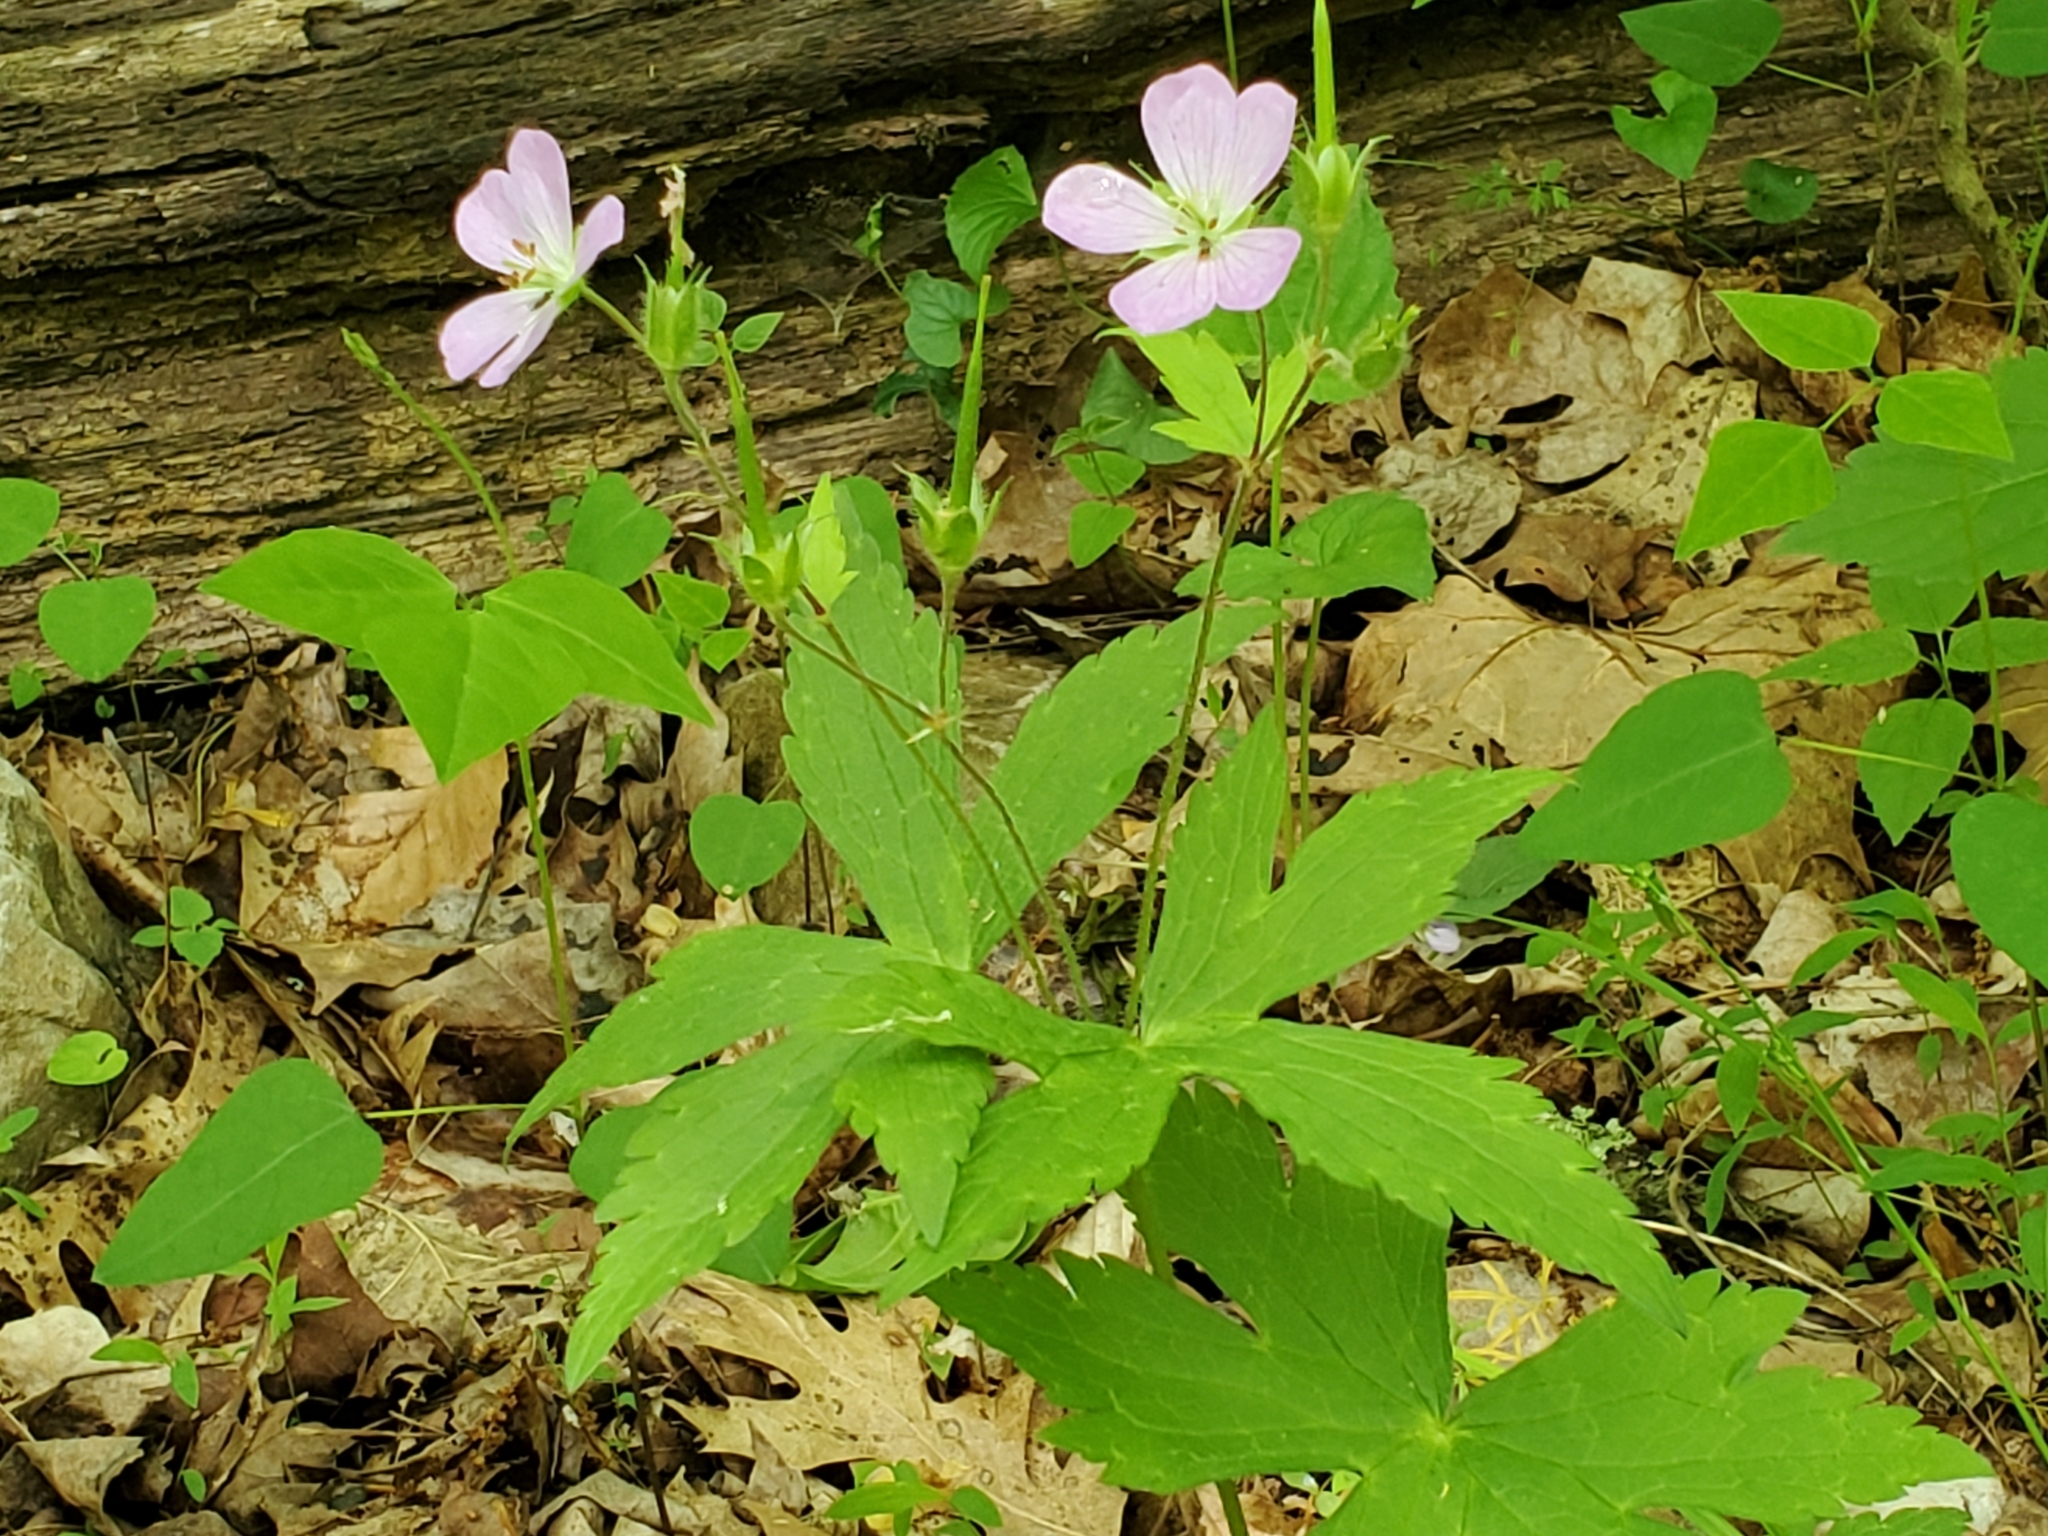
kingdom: Plantae
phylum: Tracheophyta
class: Magnoliopsida
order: Geraniales
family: Geraniaceae
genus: Geranium
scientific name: Geranium maculatum
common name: Spotted geranium
